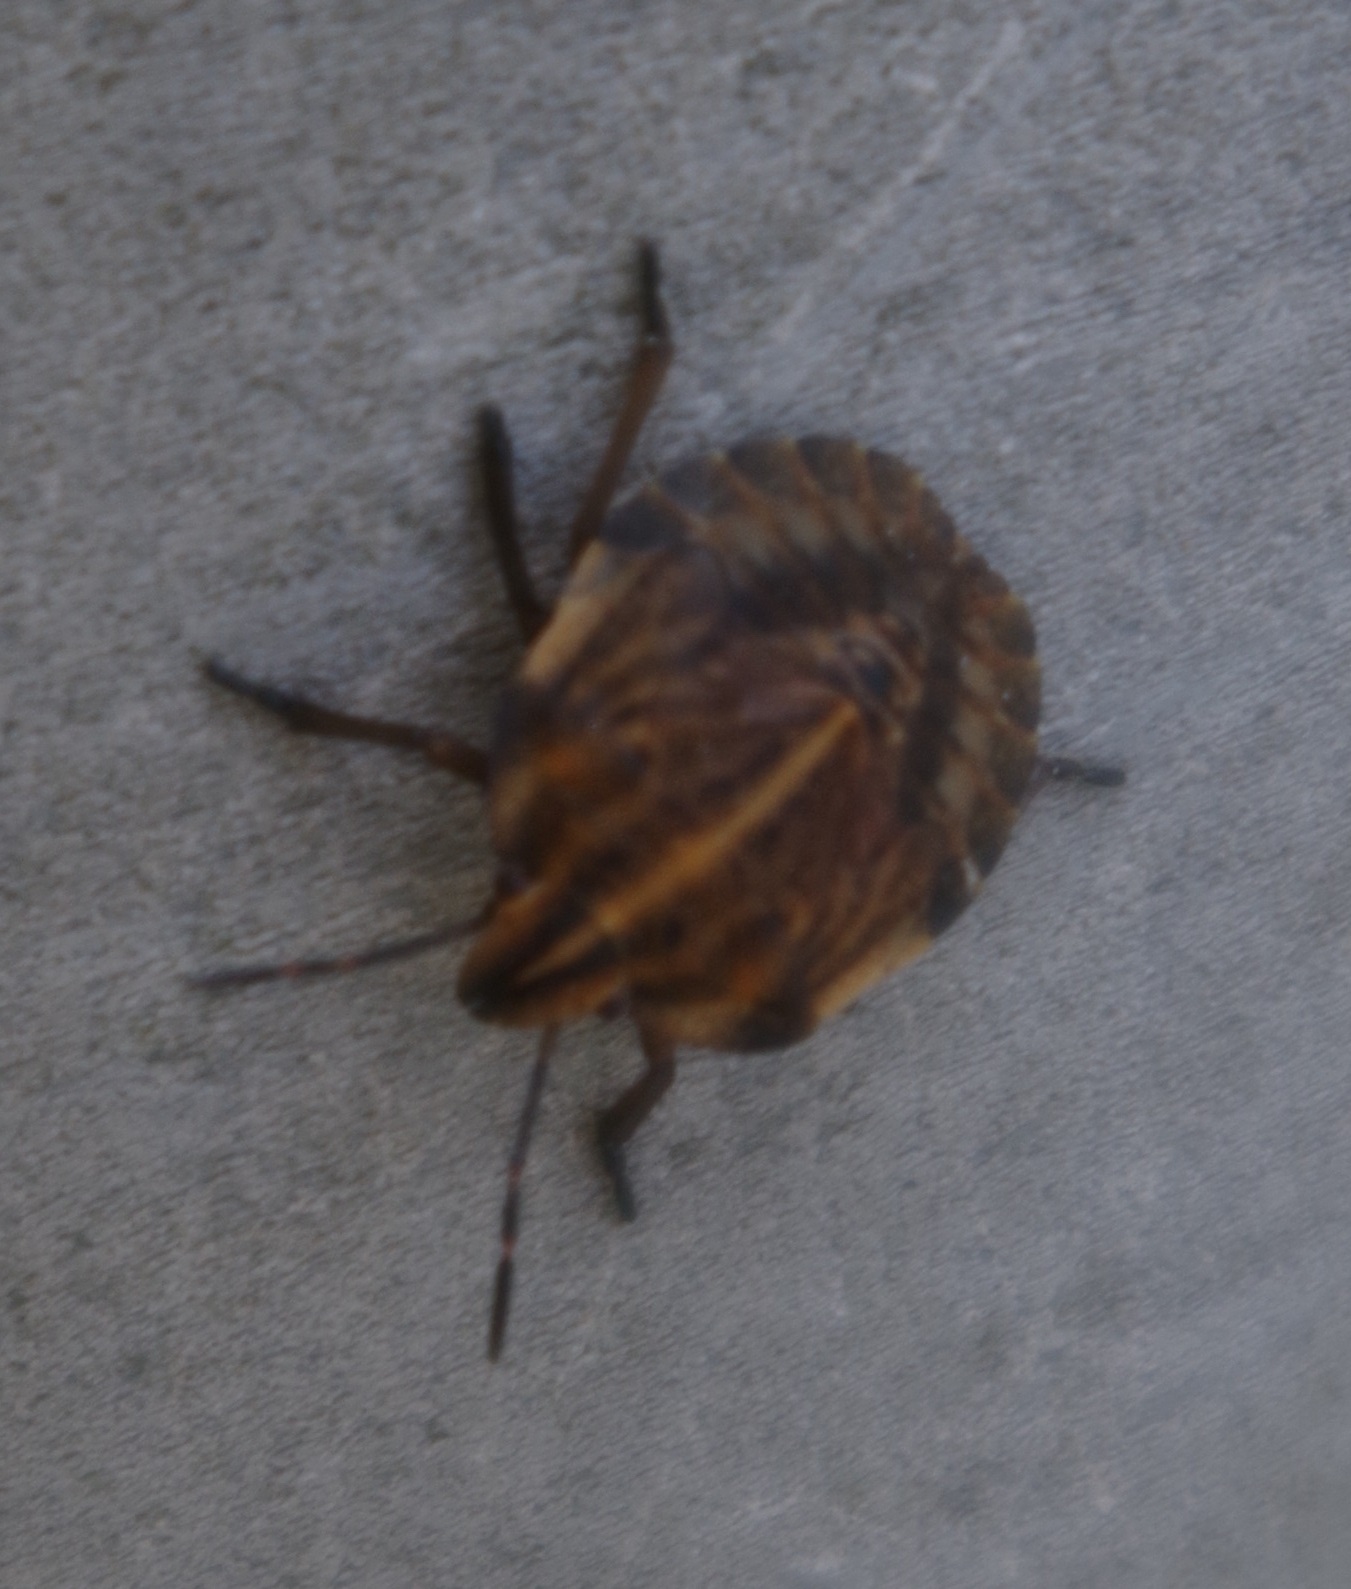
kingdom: Animalia
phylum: Arthropoda
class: Insecta
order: Hemiptera
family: Pentatomidae
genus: Graphosoma
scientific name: Graphosoma italicum
